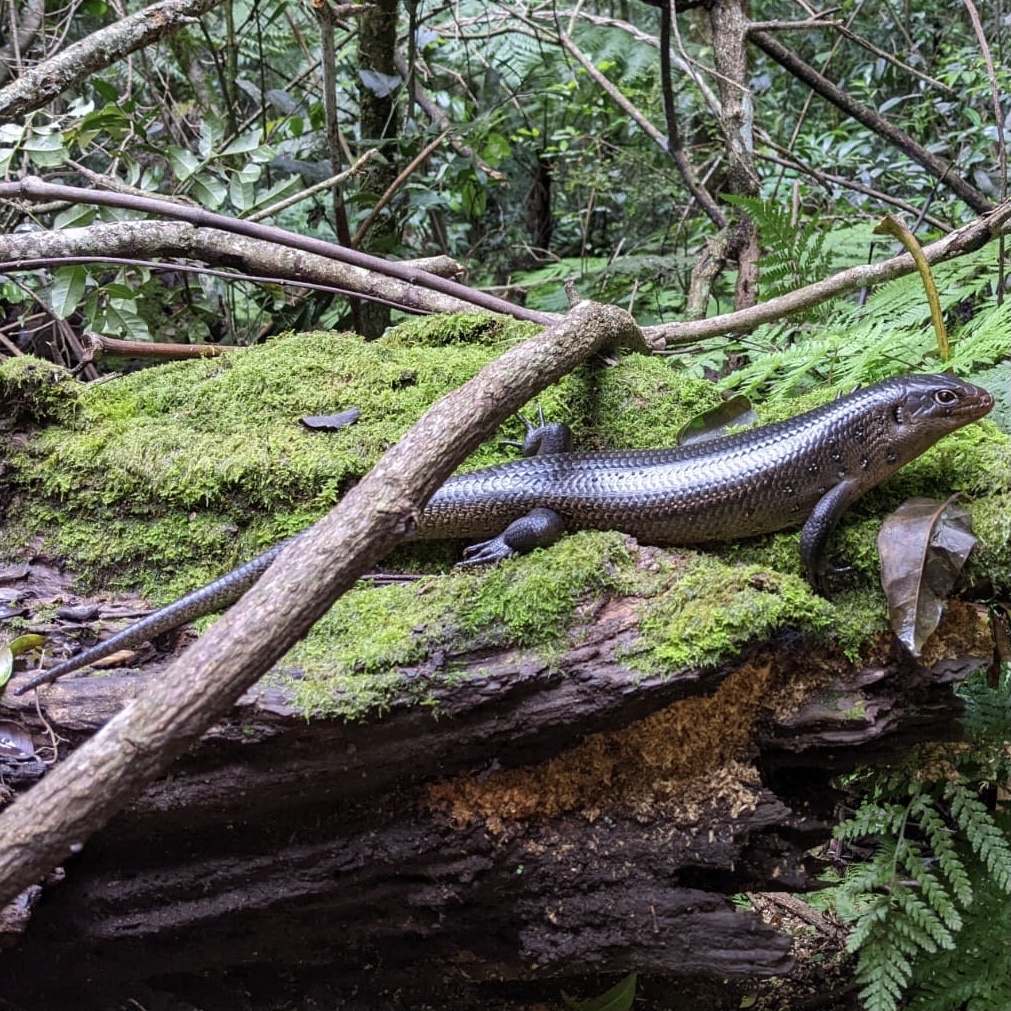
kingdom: Animalia
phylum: Chordata
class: Squamata
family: Scincidae
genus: Bellatorias
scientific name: Bellatorias major
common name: Land mullet
